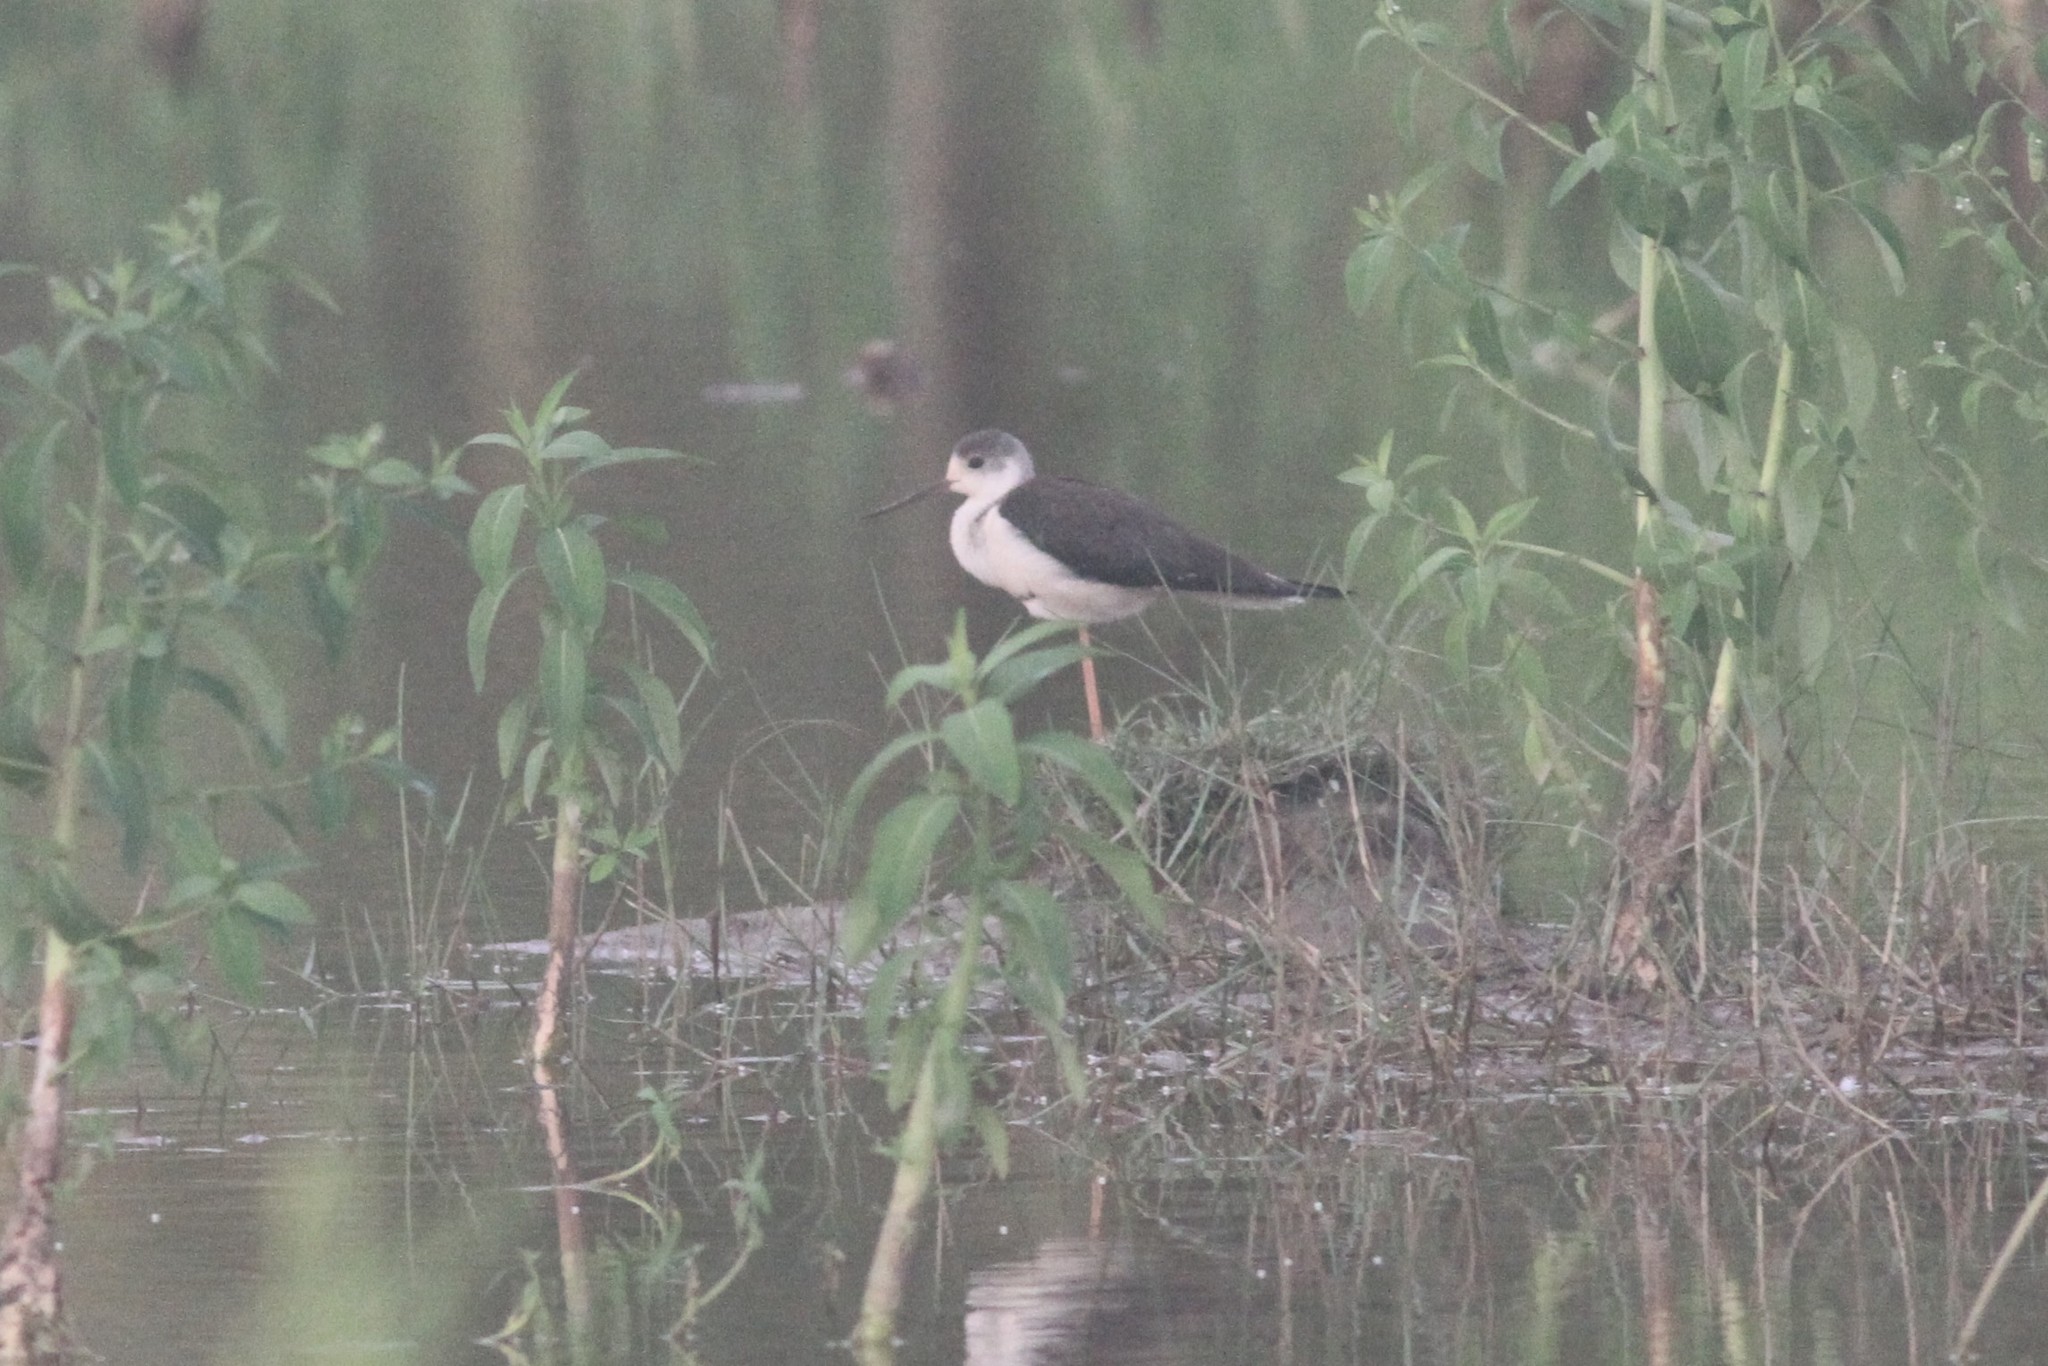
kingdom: Animalia
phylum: Chordata
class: Aves
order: Charadriiformes
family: Recurvirostridae
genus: Himantopus
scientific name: Himantopus himantopus
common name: Black-winged stilt
